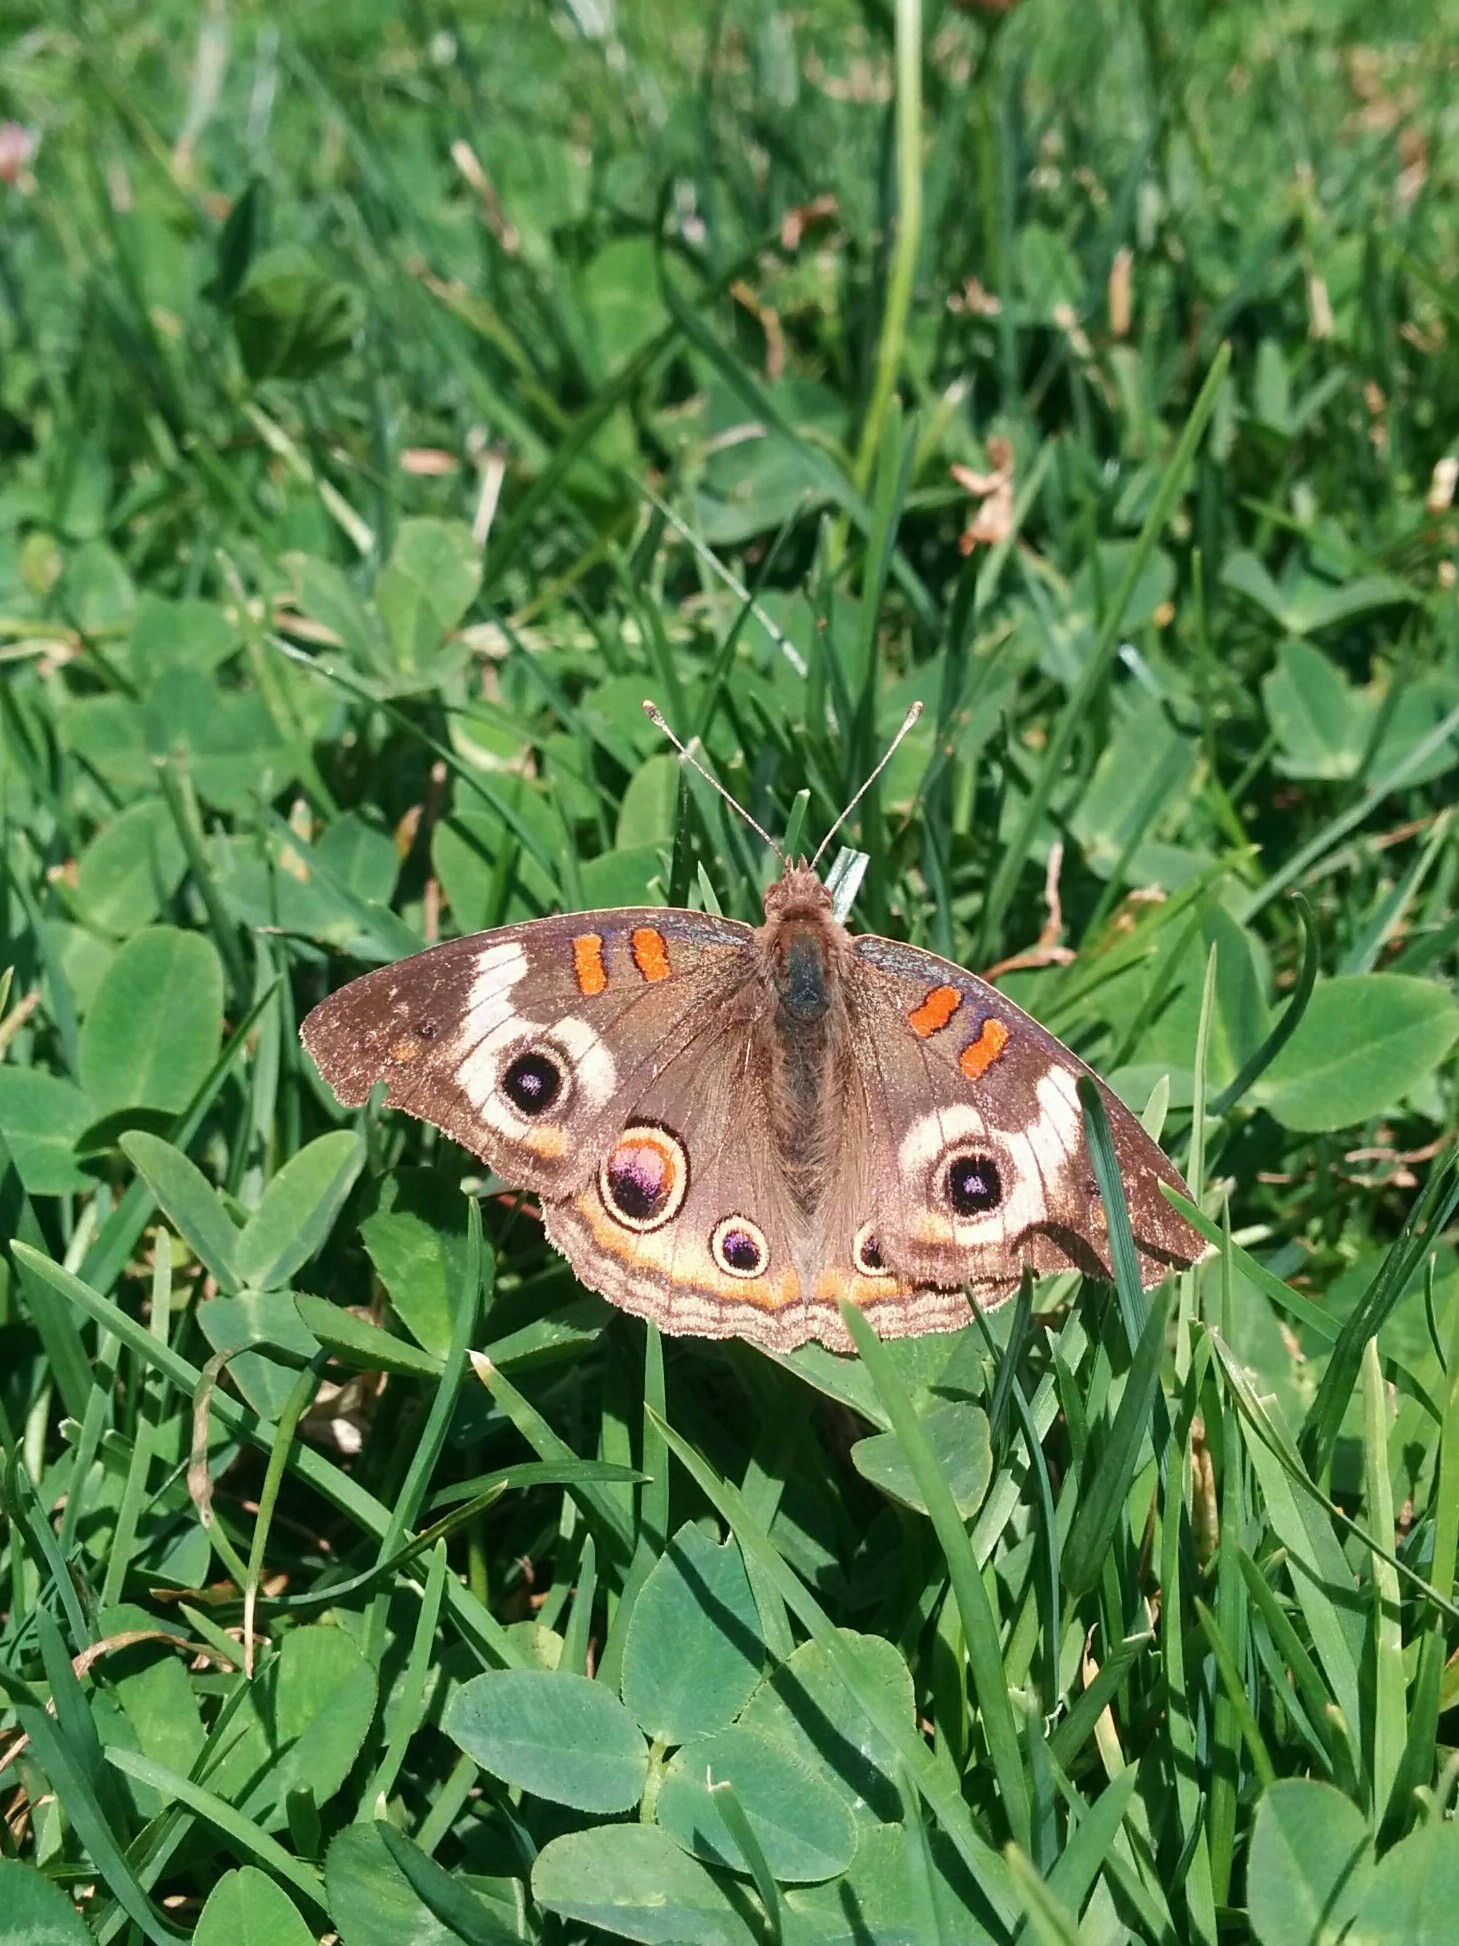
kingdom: Animalia
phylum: Arthropoda
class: Insecta
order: Lepidoptera
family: Nymphalidae
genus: Junonia
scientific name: Junonia grisea
